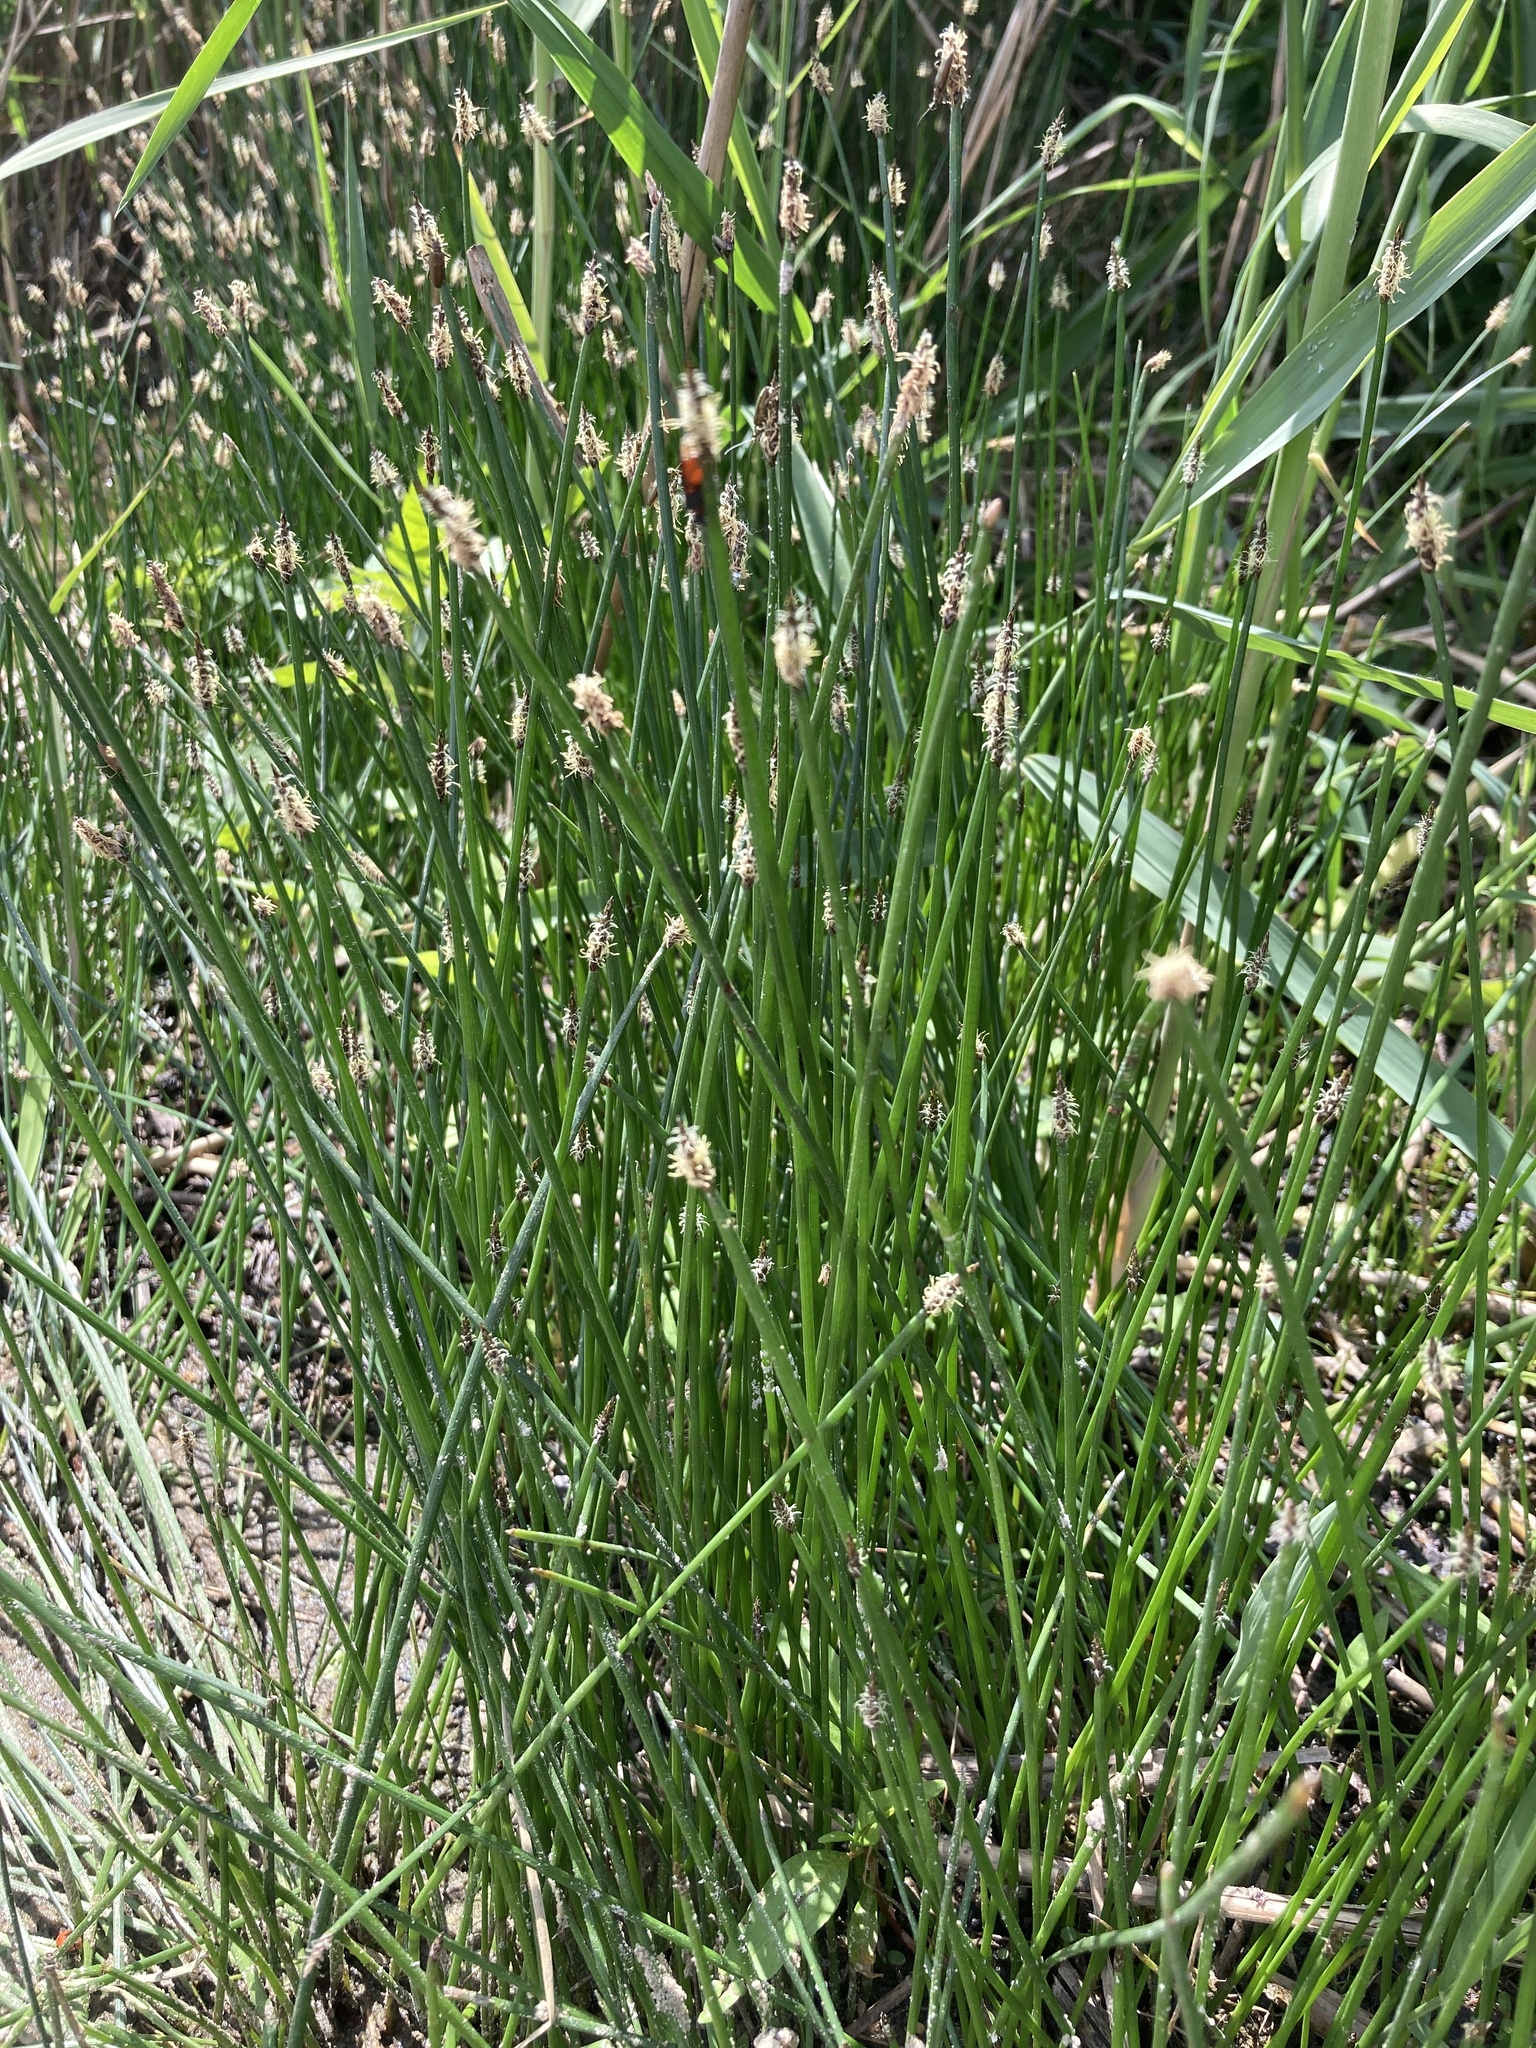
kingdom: Plantae
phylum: Tracheophyta
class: Liliopsida
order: Poales
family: Cyperaceae
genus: Eleocharis
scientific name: Eleocharis palustris
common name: Common spike-rush
